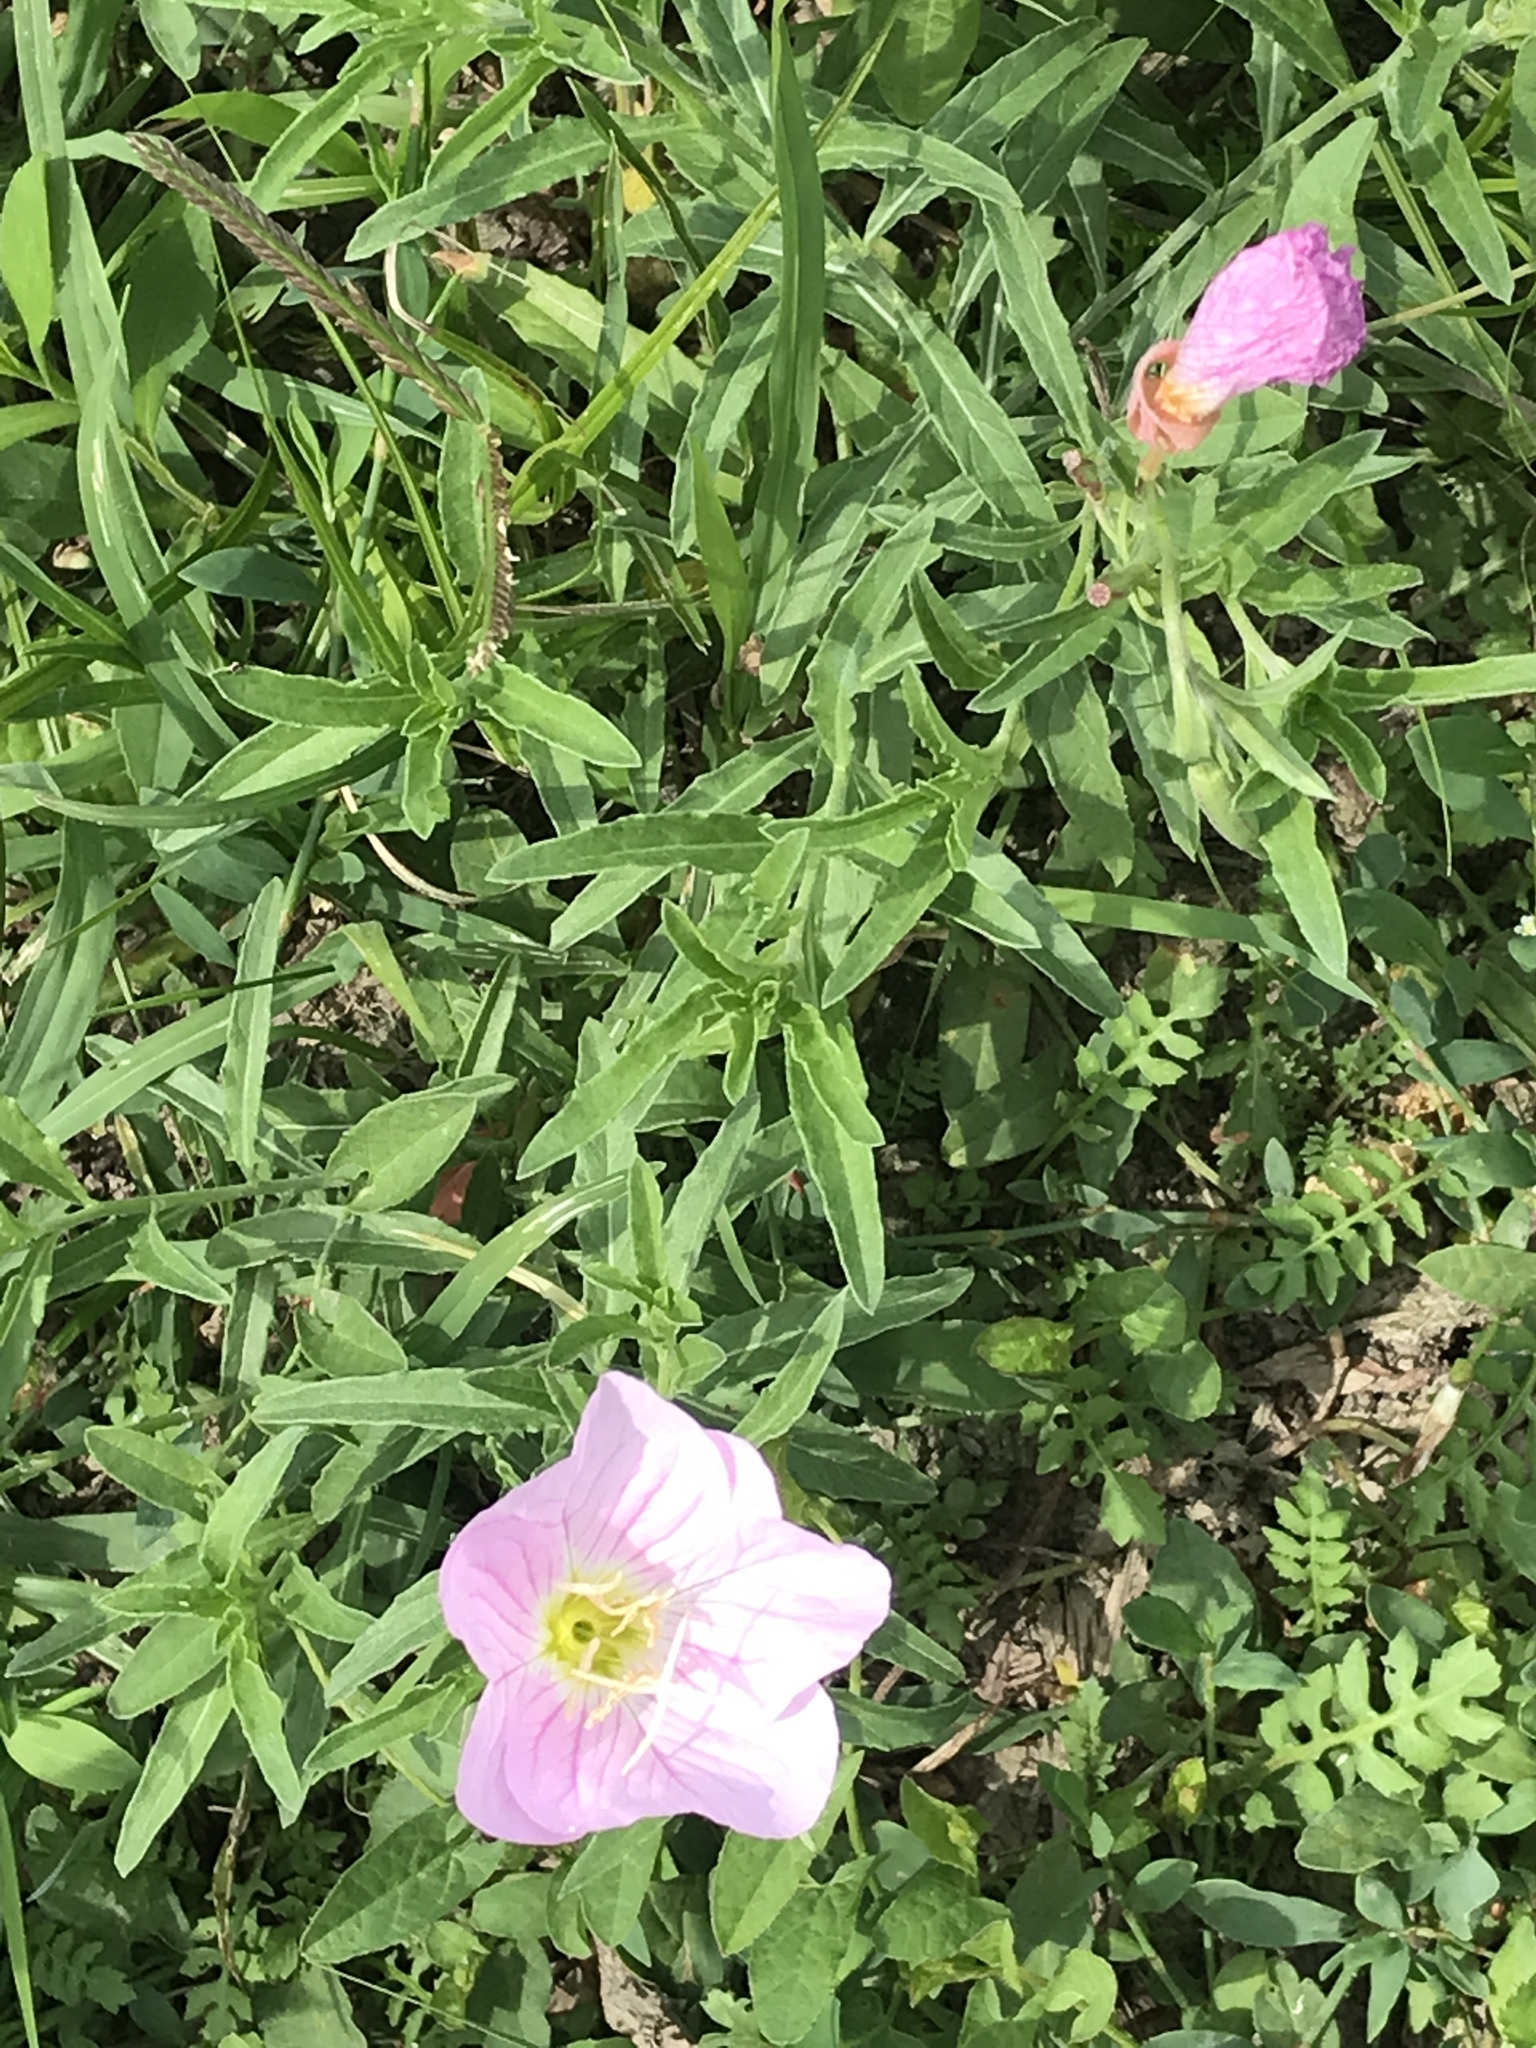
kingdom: Plantae
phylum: Tracheophyta
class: Magnoliopsida
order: Myrtales
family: Onagraceae
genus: Oenothera
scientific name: Oenothera speciosa
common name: White evening-primrose
